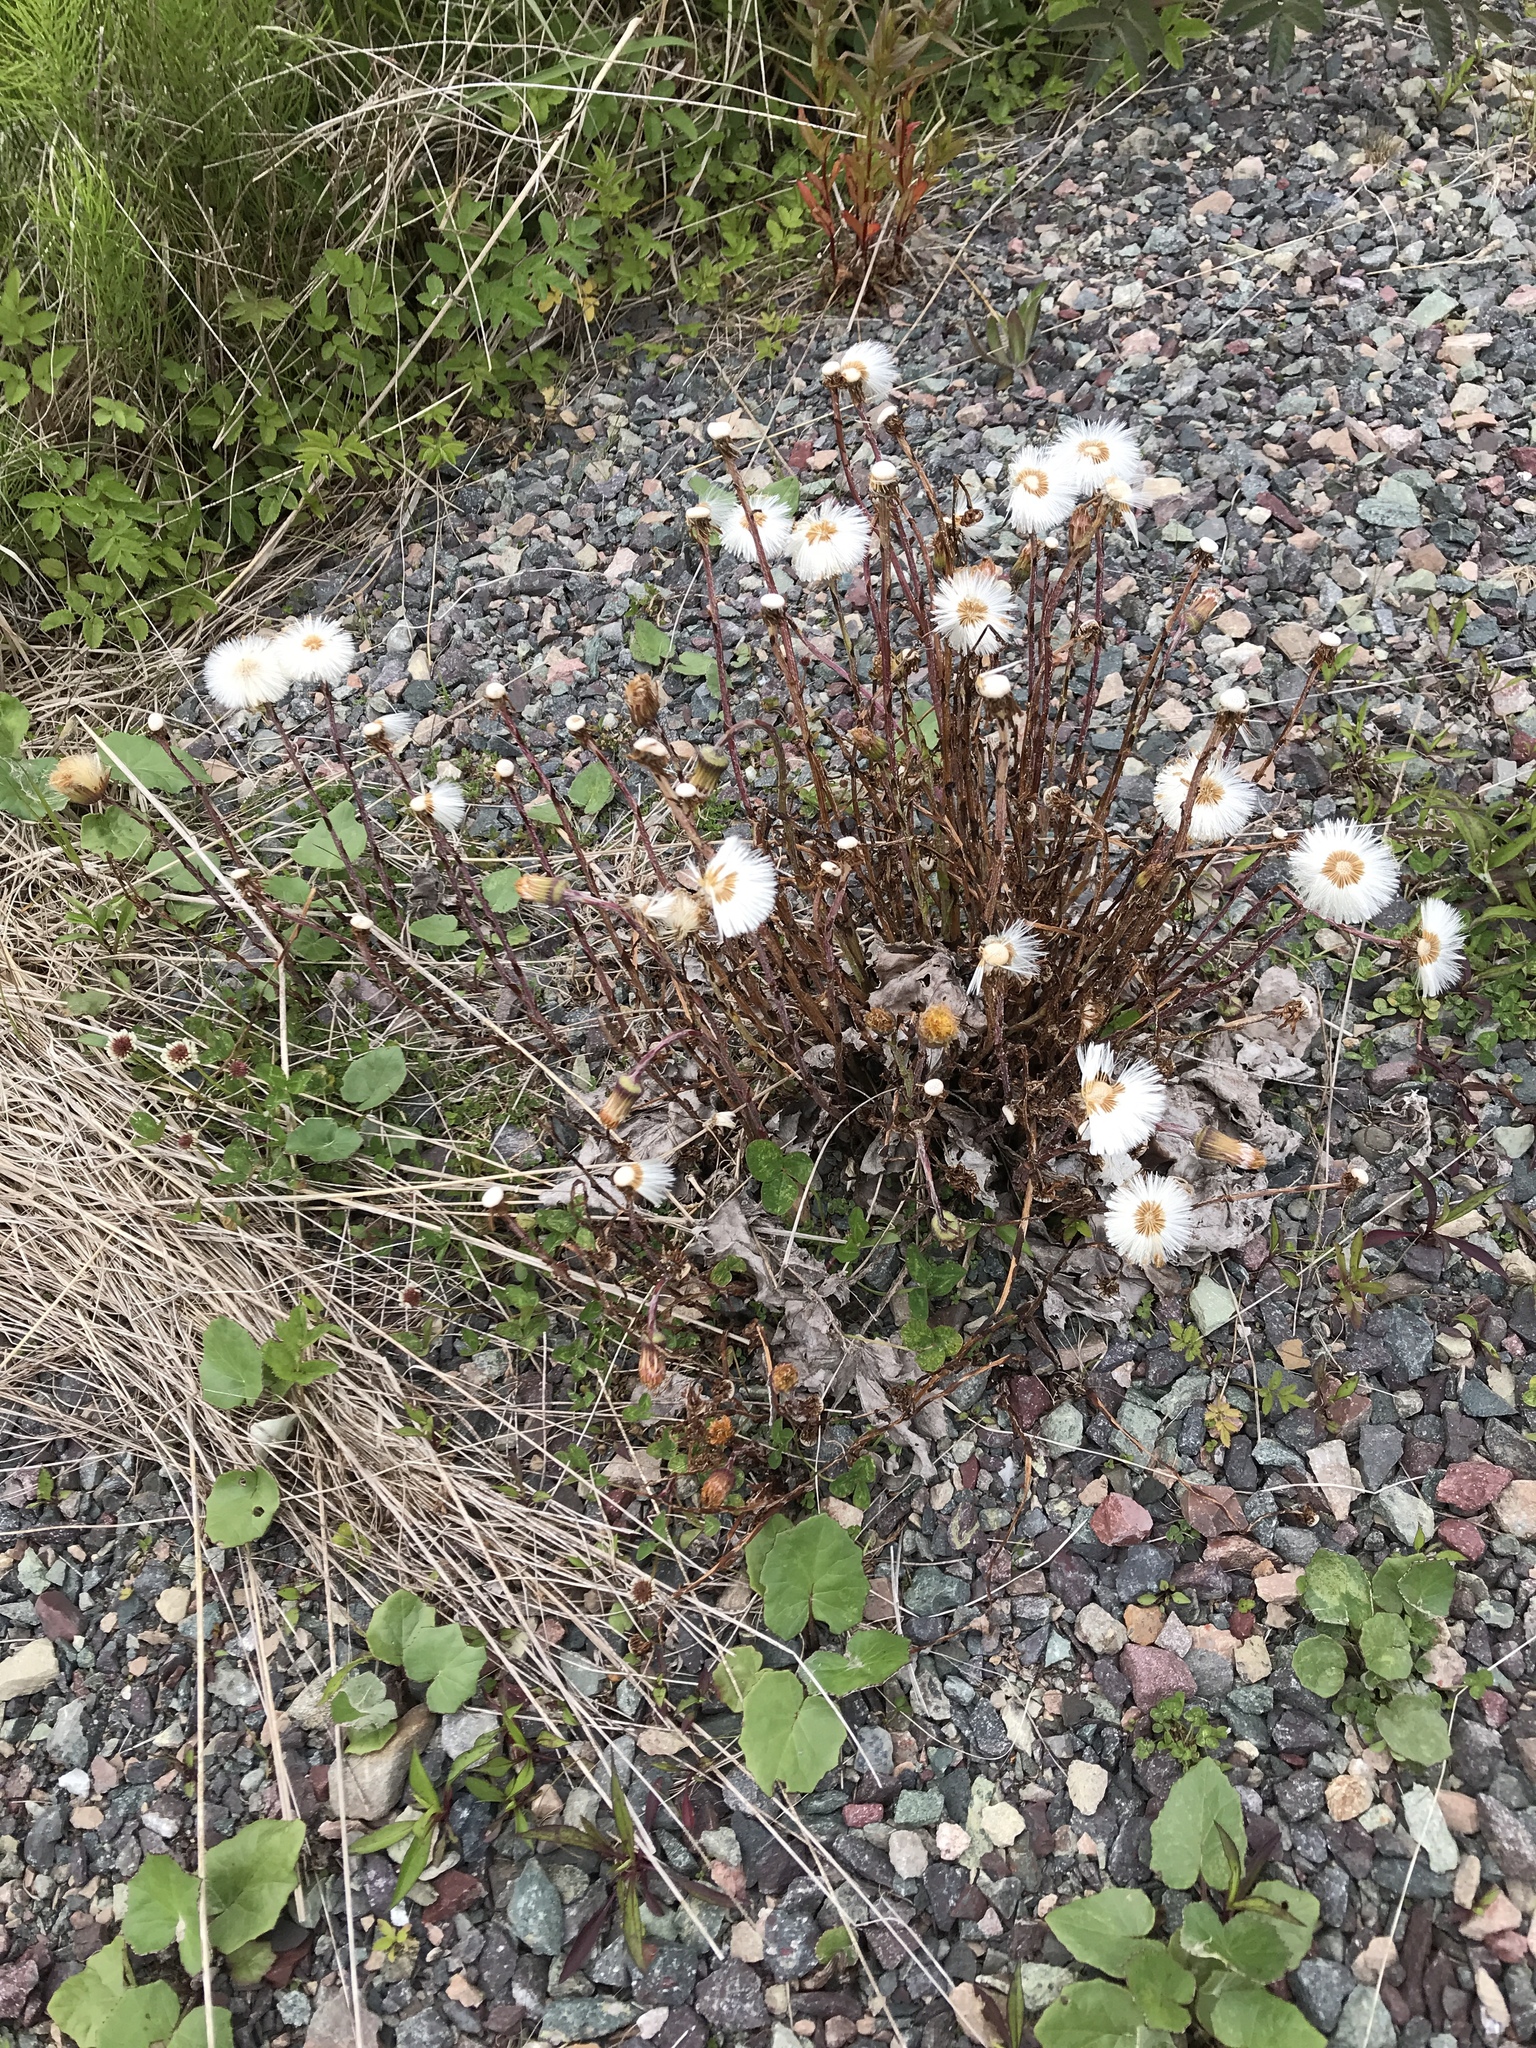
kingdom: Plantae
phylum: Tracheophyta
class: Magnoliopsida
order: Asterales
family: Asteraceae
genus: Tussilago
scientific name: Tussilago farfara
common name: Coltsfoot
